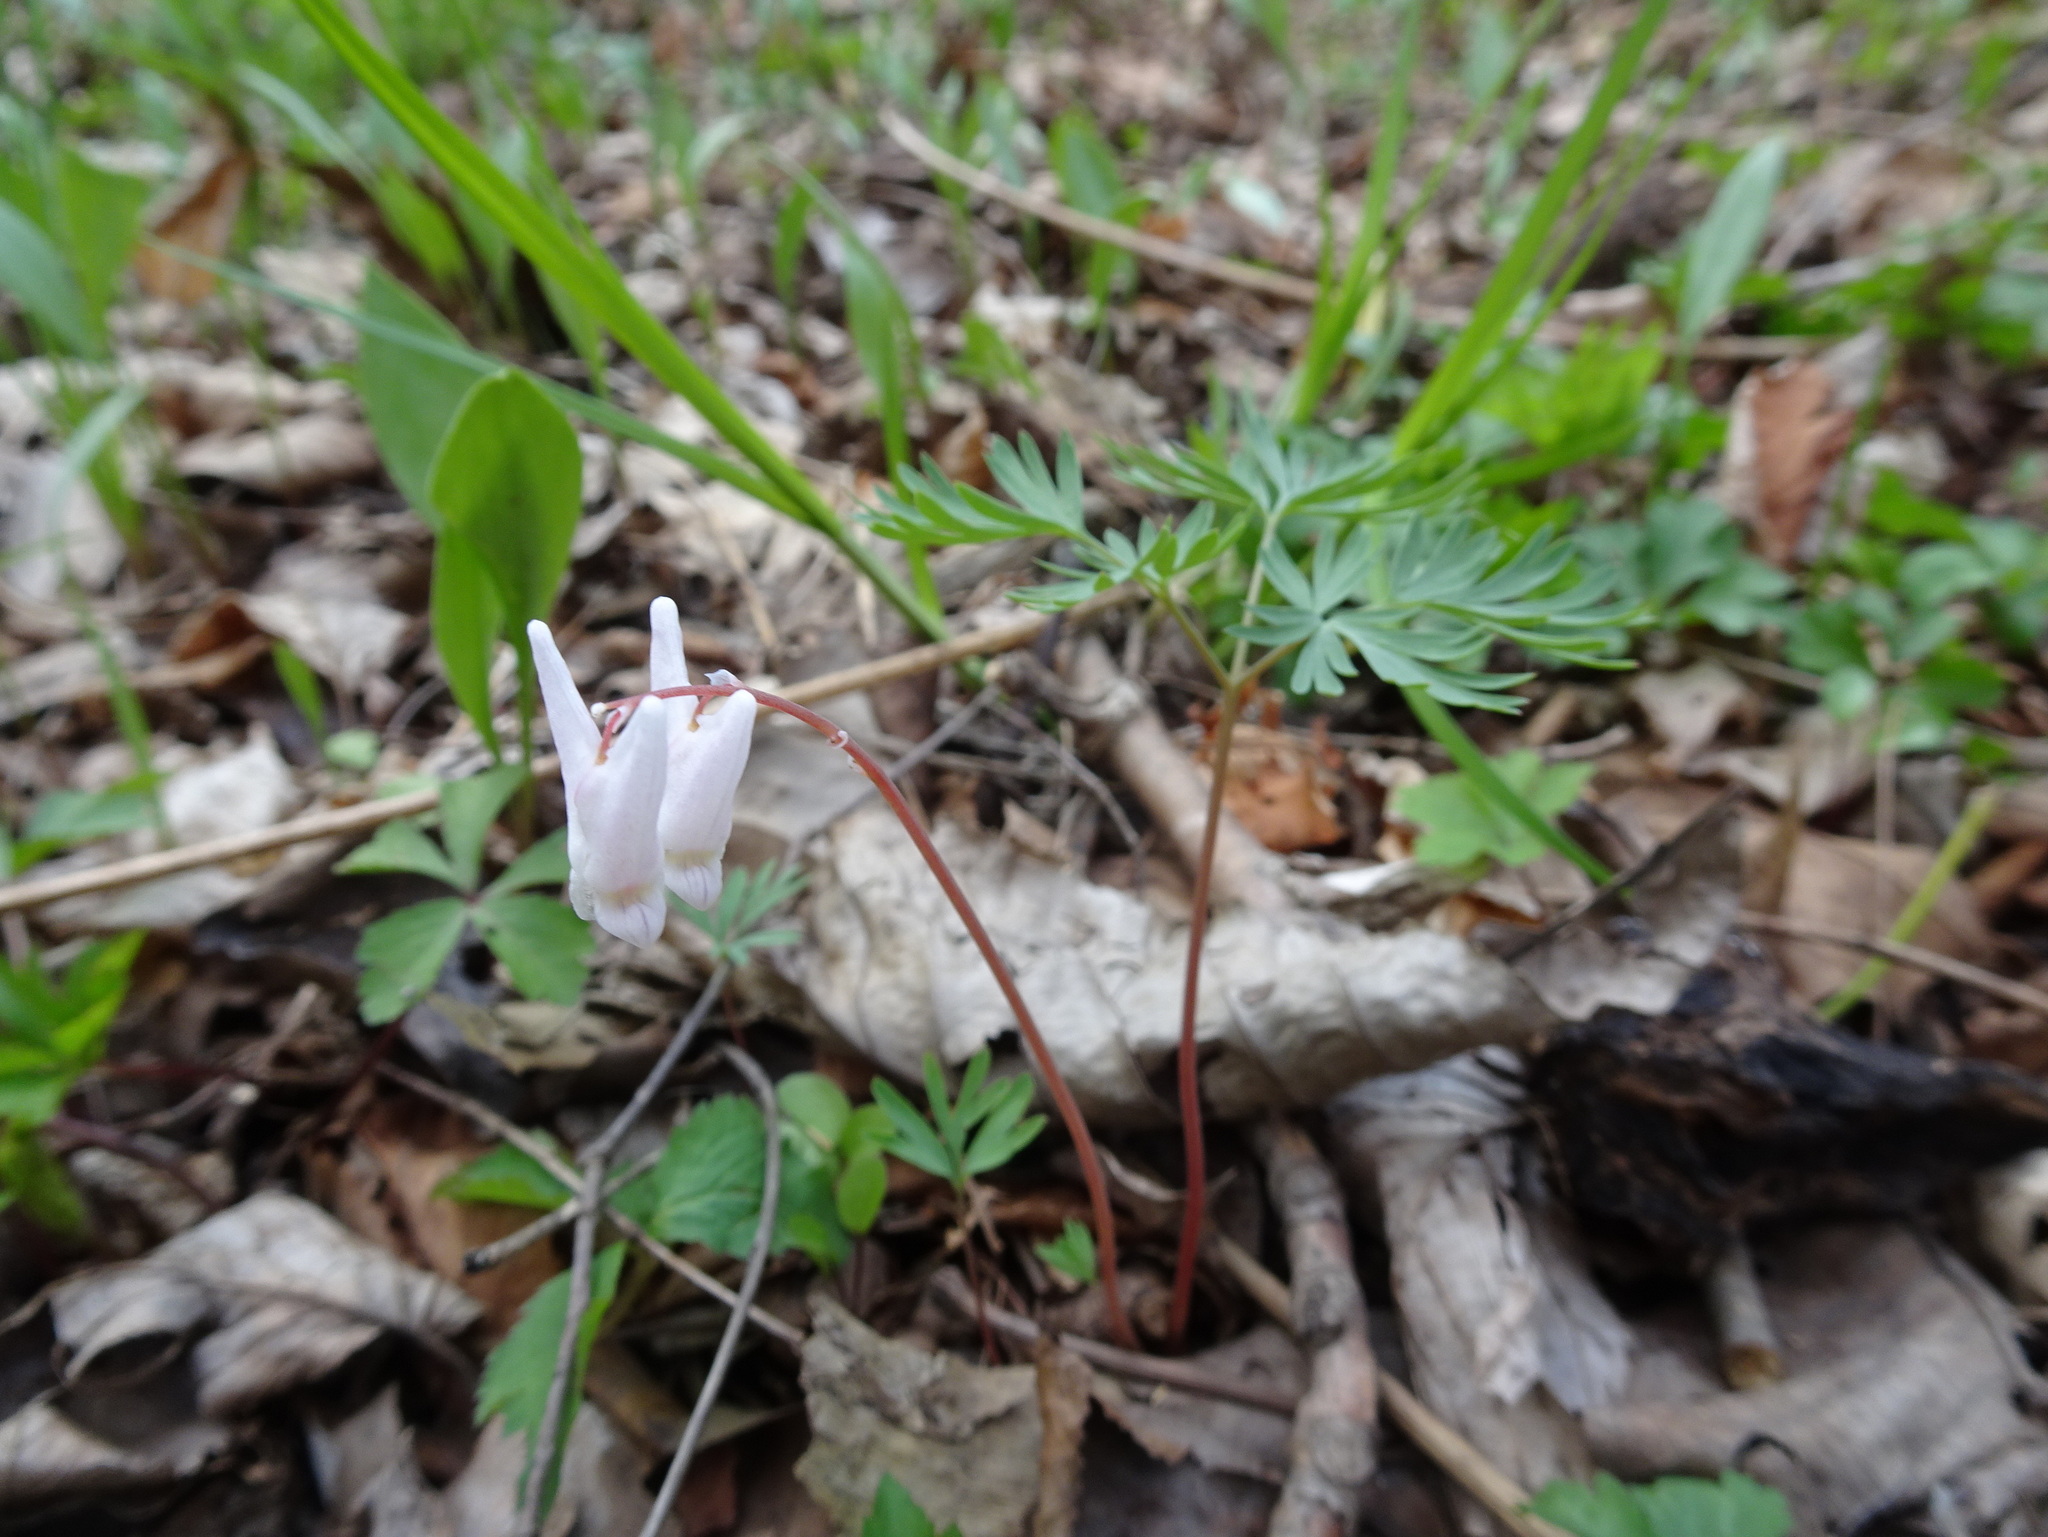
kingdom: Plantae
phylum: Tracheophyta
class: Magnoliopsida
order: Ranunculales
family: Papaveraceae
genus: Dicentra
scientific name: Dicentra cucullaria
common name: Dutchman's breeches
